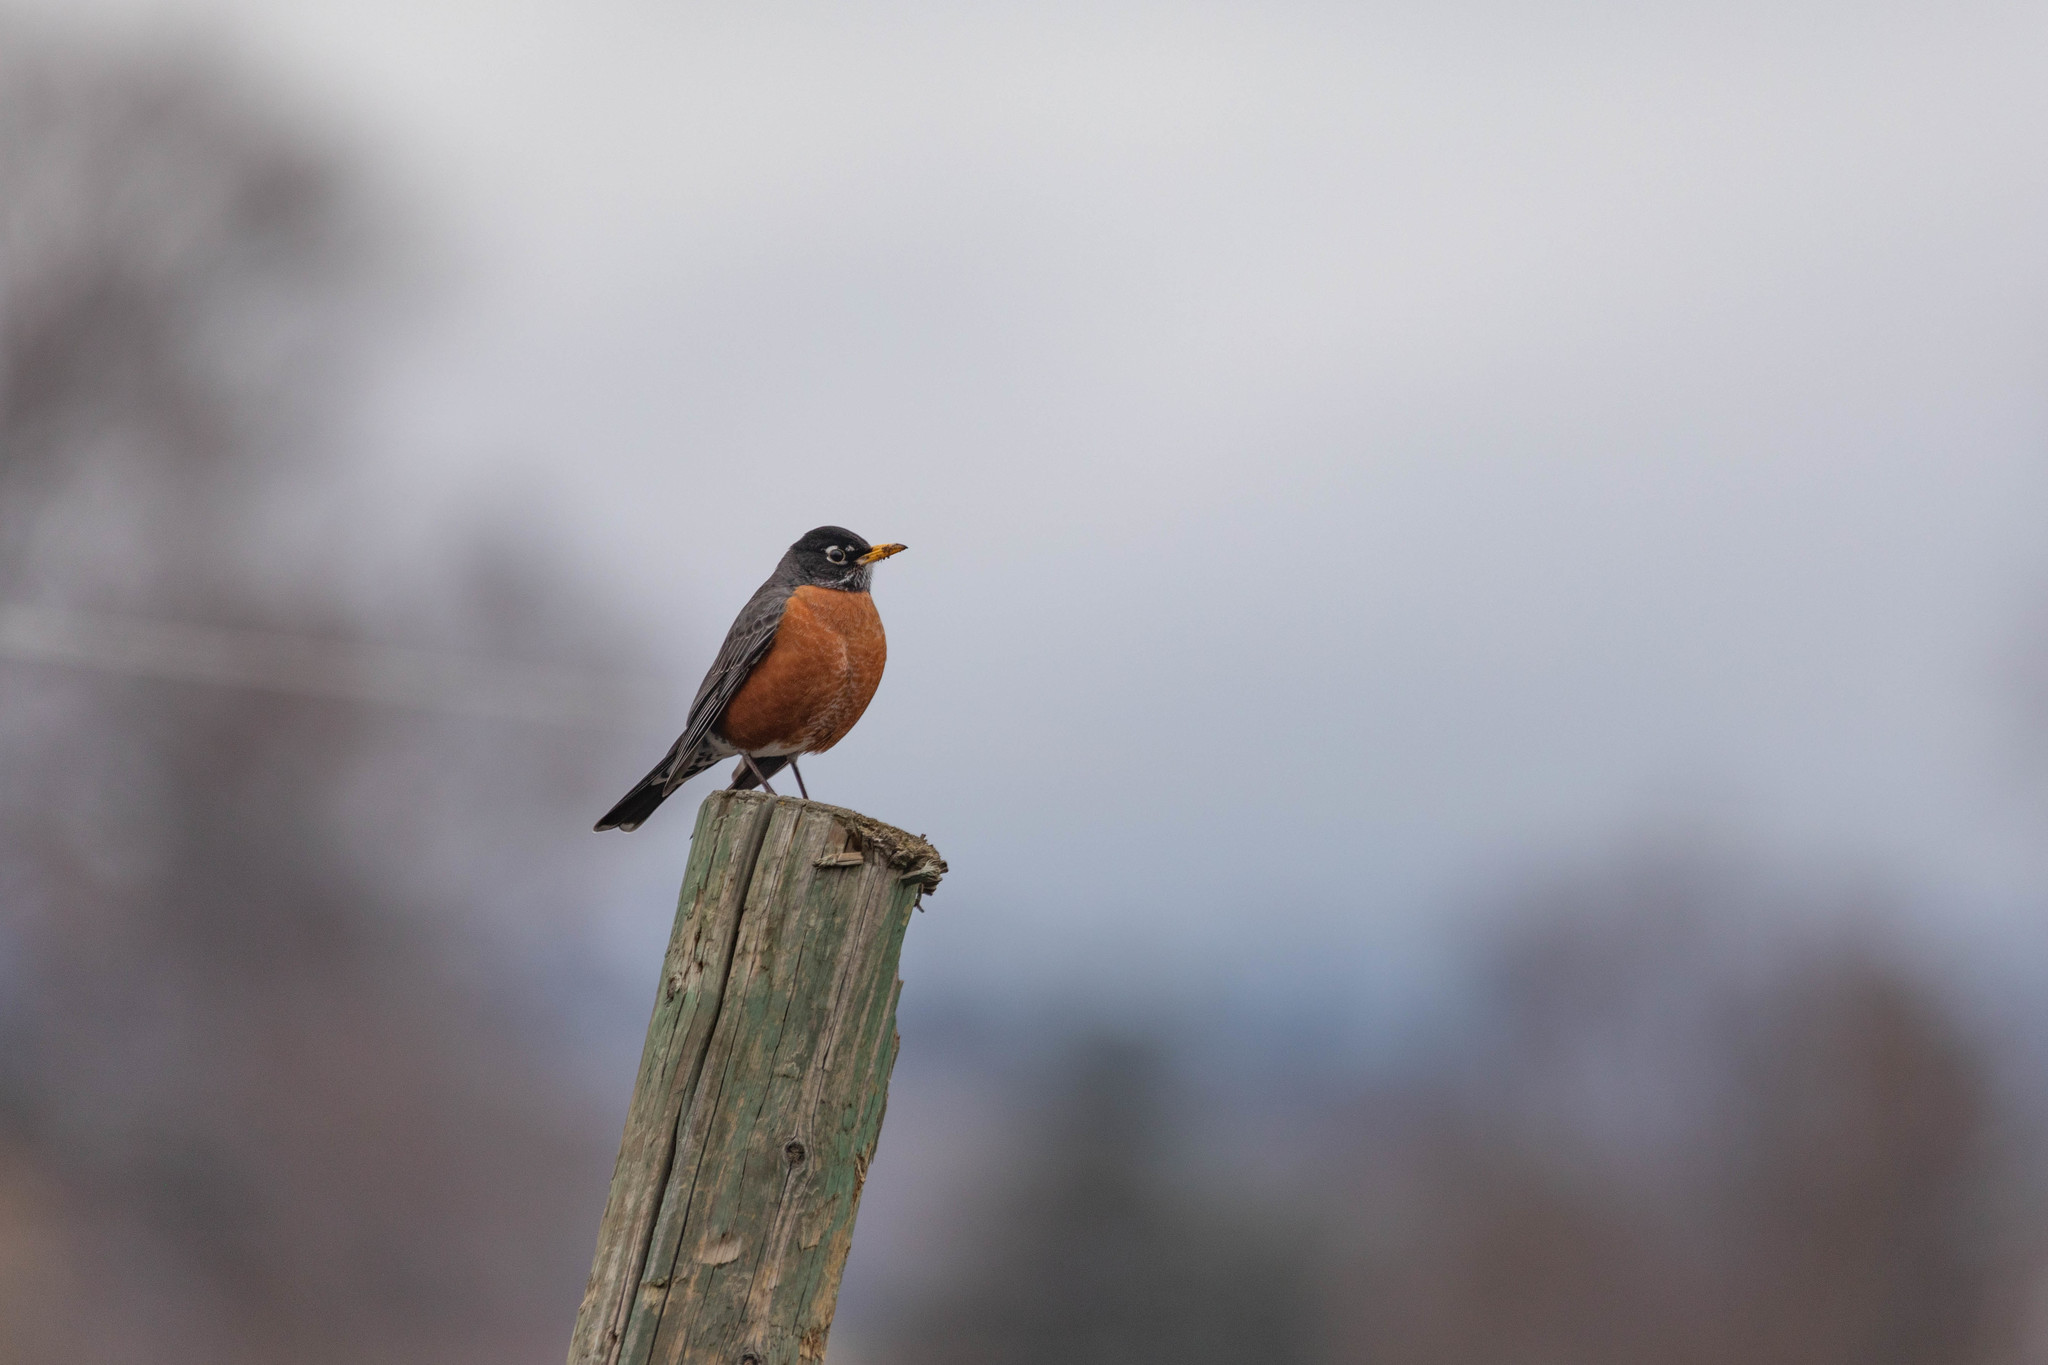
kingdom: Animalia
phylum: Chordata
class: Aves
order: Passeriformes
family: Turdidae
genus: Turdus
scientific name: Turdus migratorius
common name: American robin
